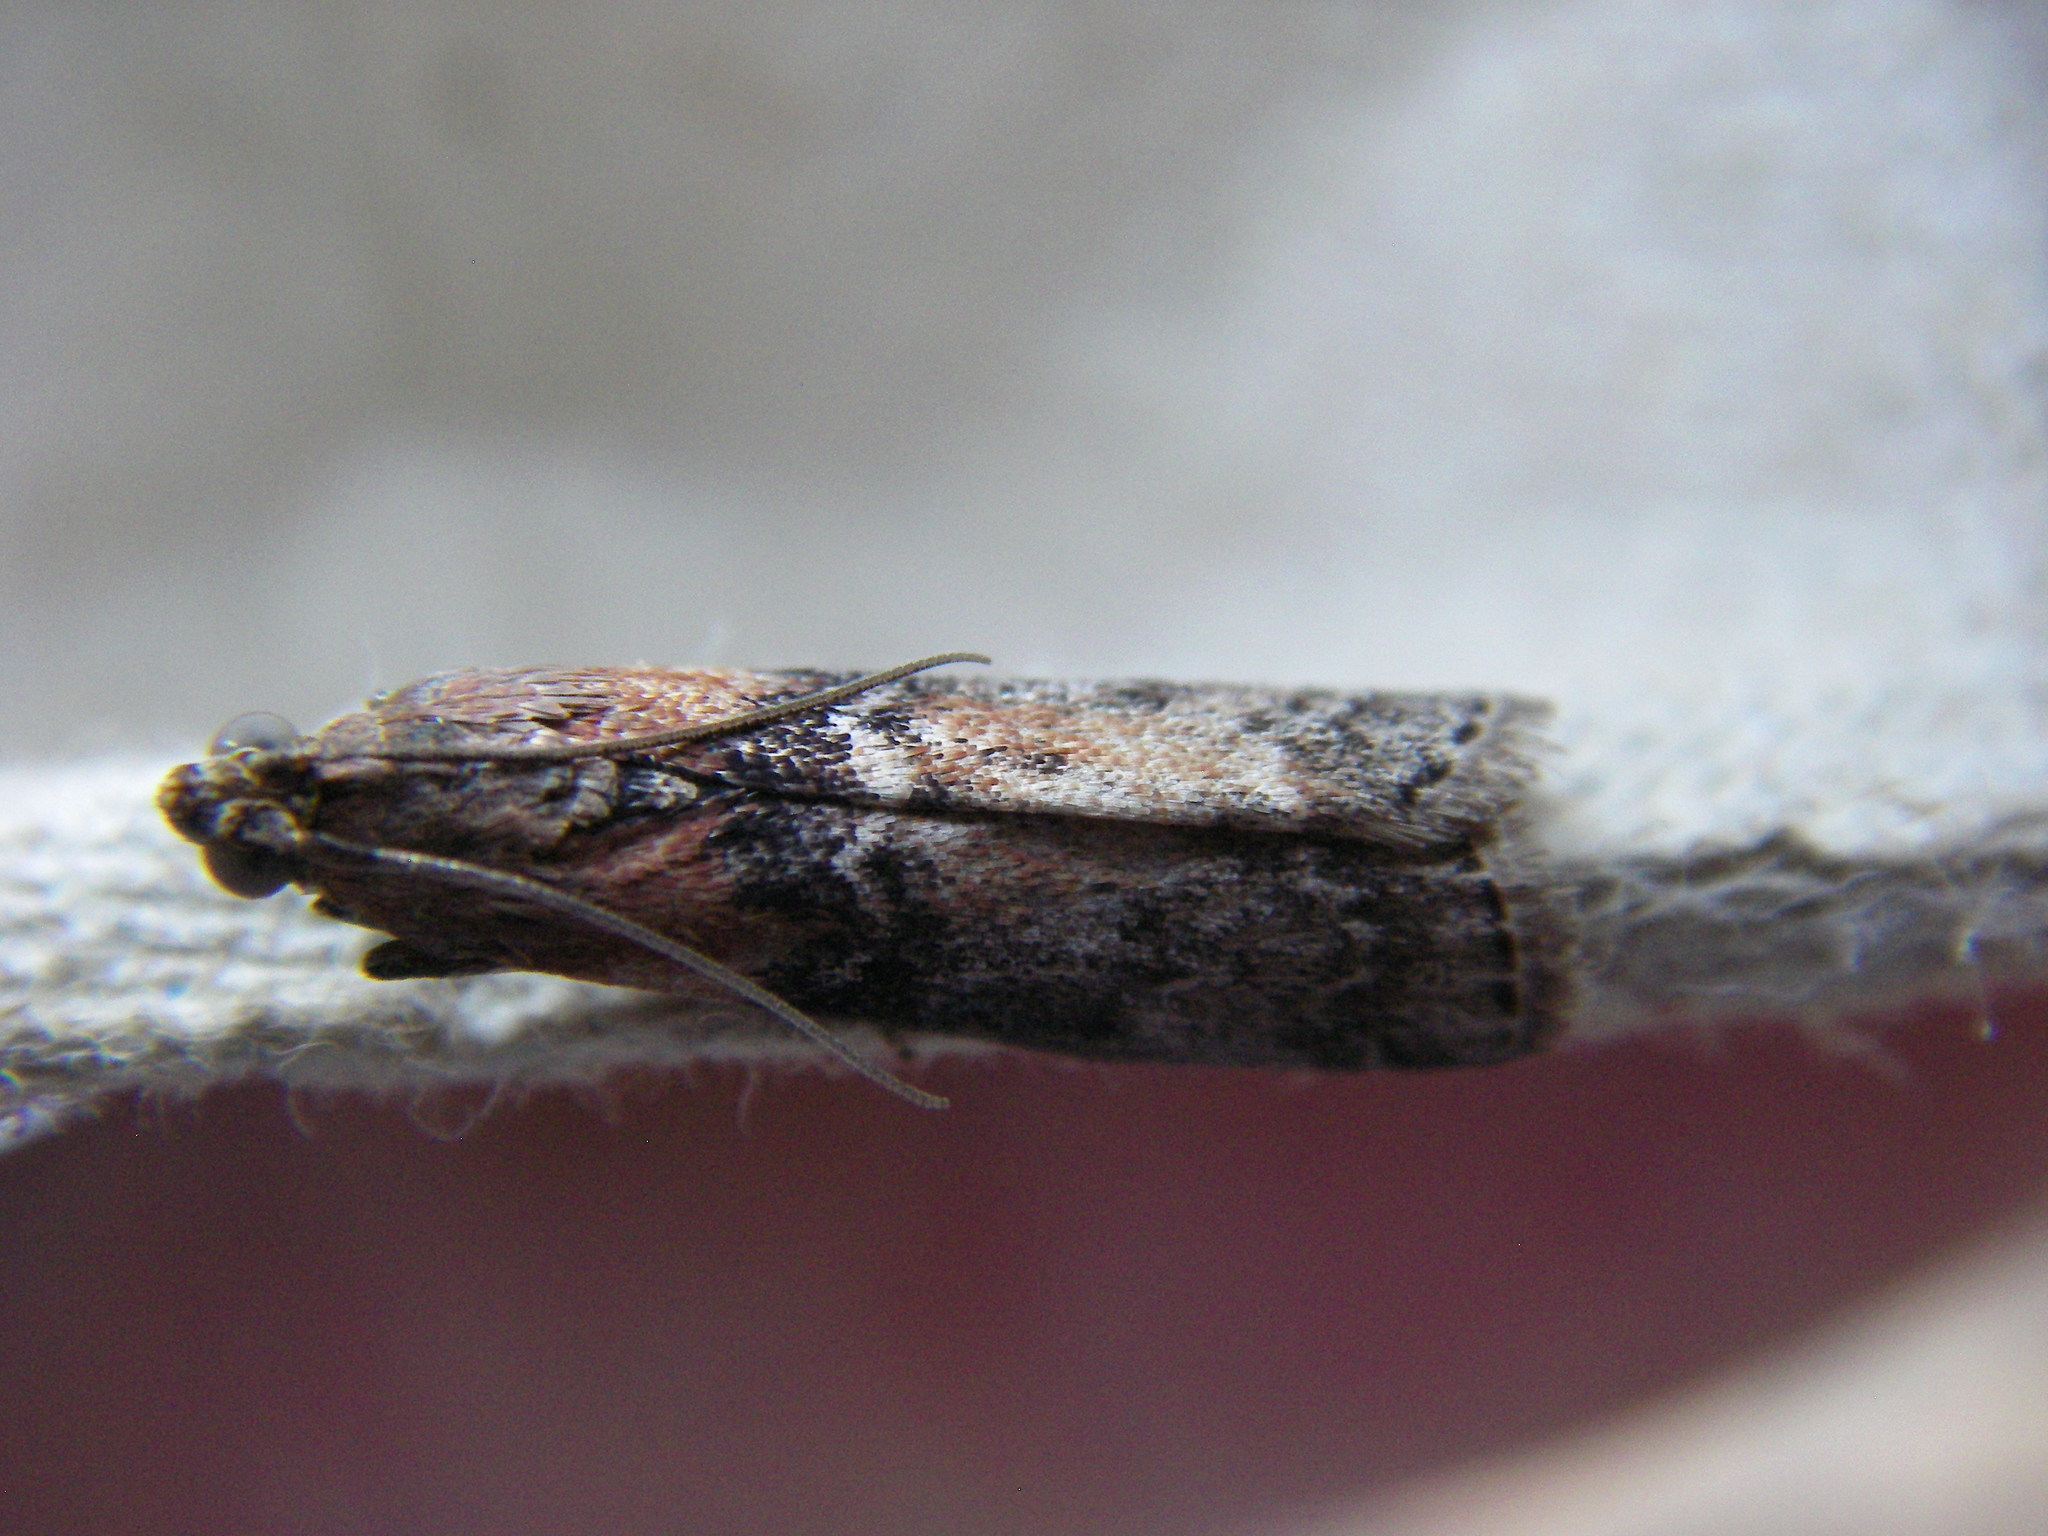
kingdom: Animalia
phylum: Arthropoda
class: Insecta
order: Lepidoptera
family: Pyralidae
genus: Sciota
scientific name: Sciota adelphella
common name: Willow knot-horn
